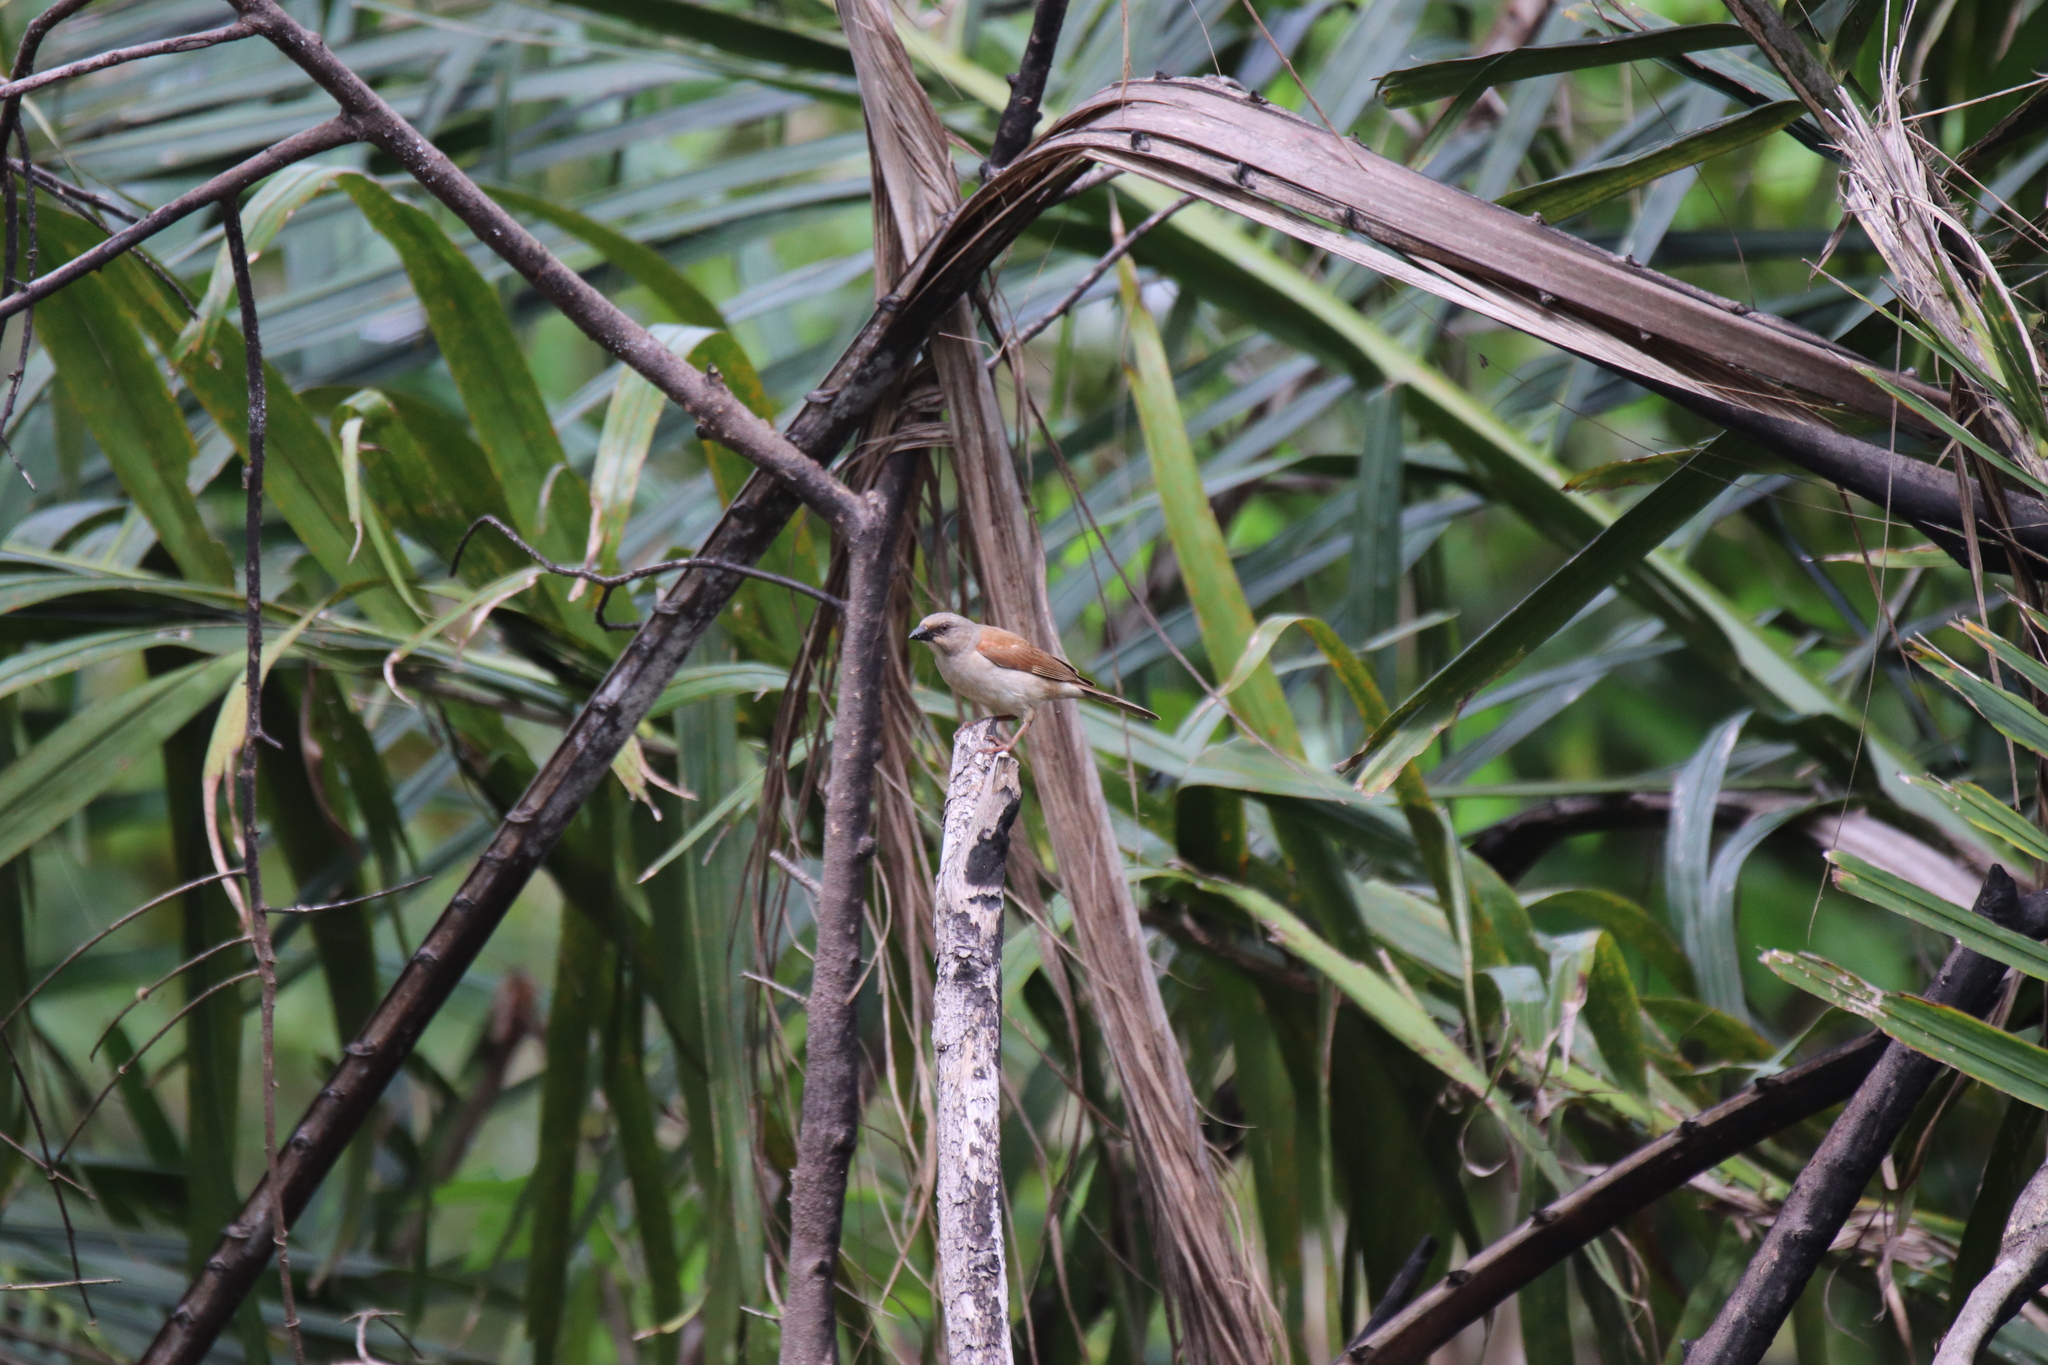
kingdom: Animalia
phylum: Chordata
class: Aves
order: Passeriformes
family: Passeridae
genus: Passer
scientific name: Passer griseus
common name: Northern grey-headed sparrow
